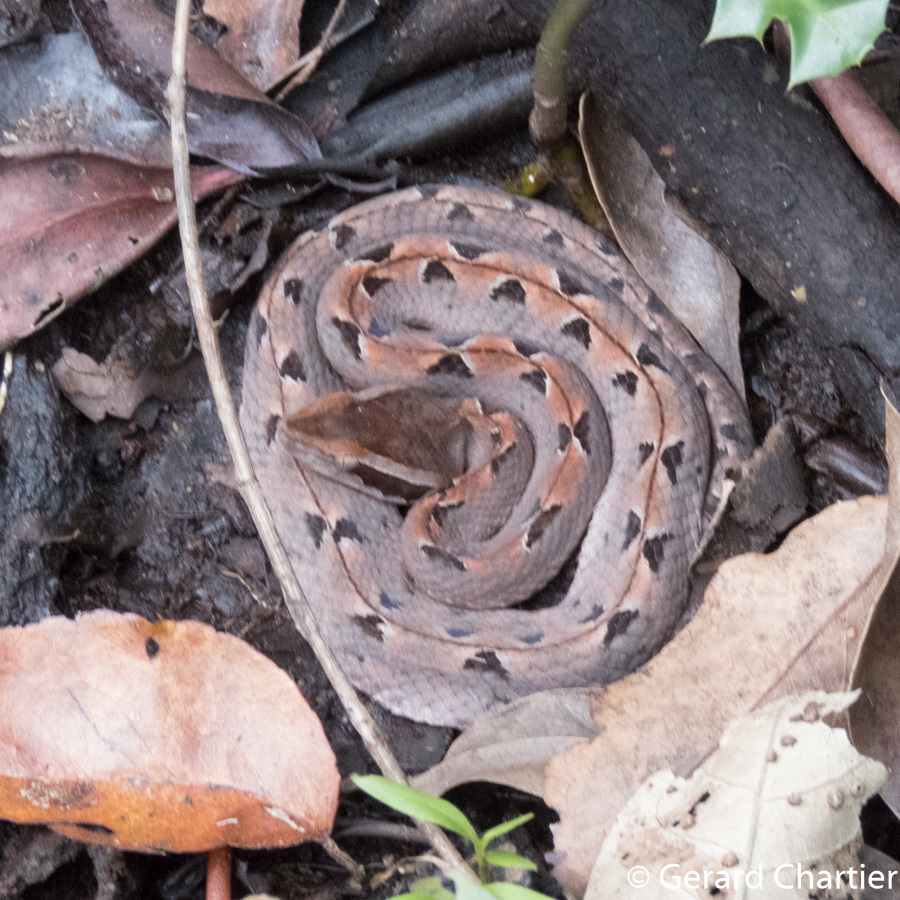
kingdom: Animalia
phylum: Chordata
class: Squamata
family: Viperidae
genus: Calloselasma
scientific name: Calloselasma rhodostoma
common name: Malayan pit viper
